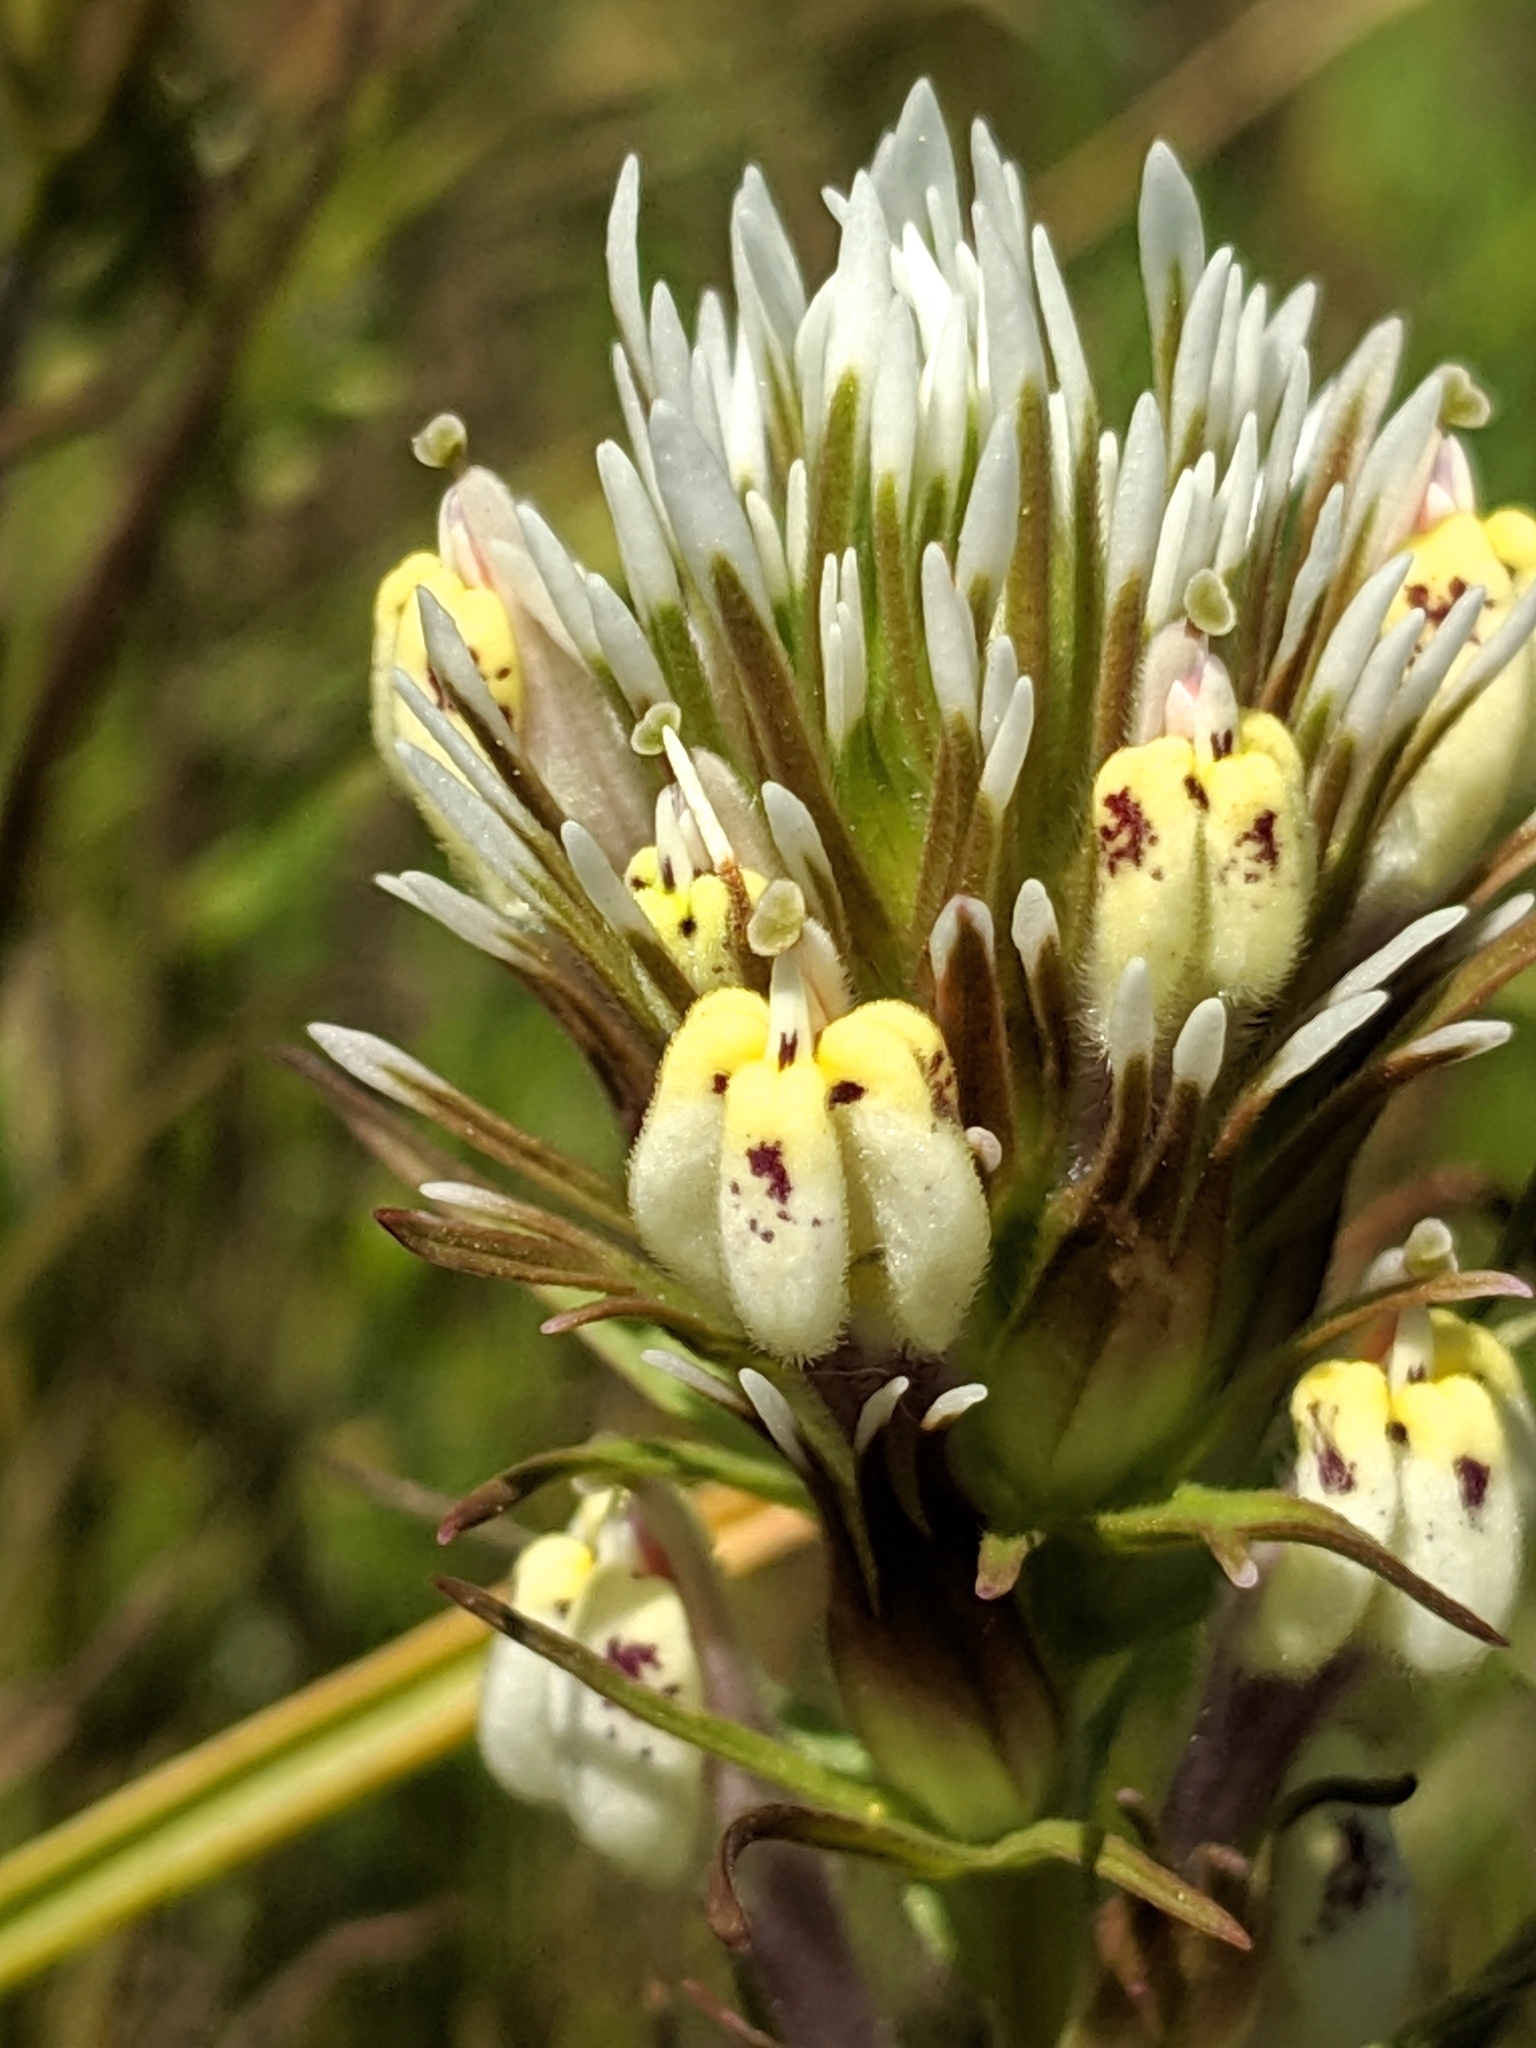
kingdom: Plantae
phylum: Tracheophyta
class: Magnoliopsida
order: Lamiales
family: Orobanchaceae
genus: Castilleja
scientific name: Castilleja densiflora
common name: Dense-flower indian paintbrush
